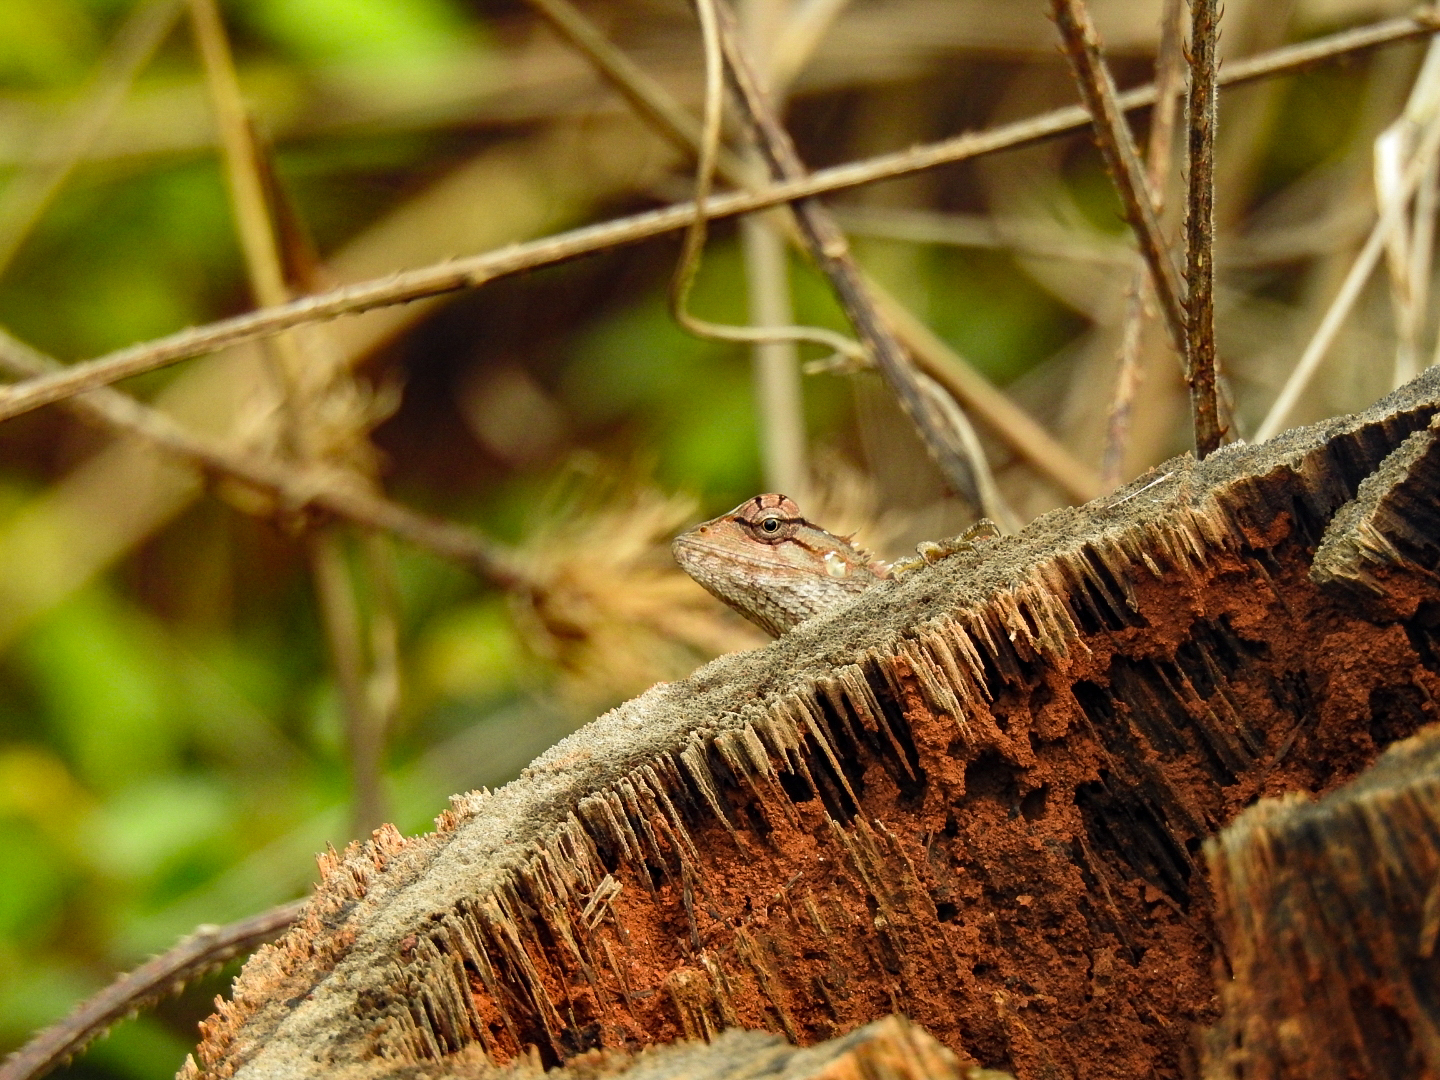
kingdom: Animalia
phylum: Chordata
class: Squamata
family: Agamidae
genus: Calotes
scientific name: Calotes versicolor
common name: Oriental garden lizard
